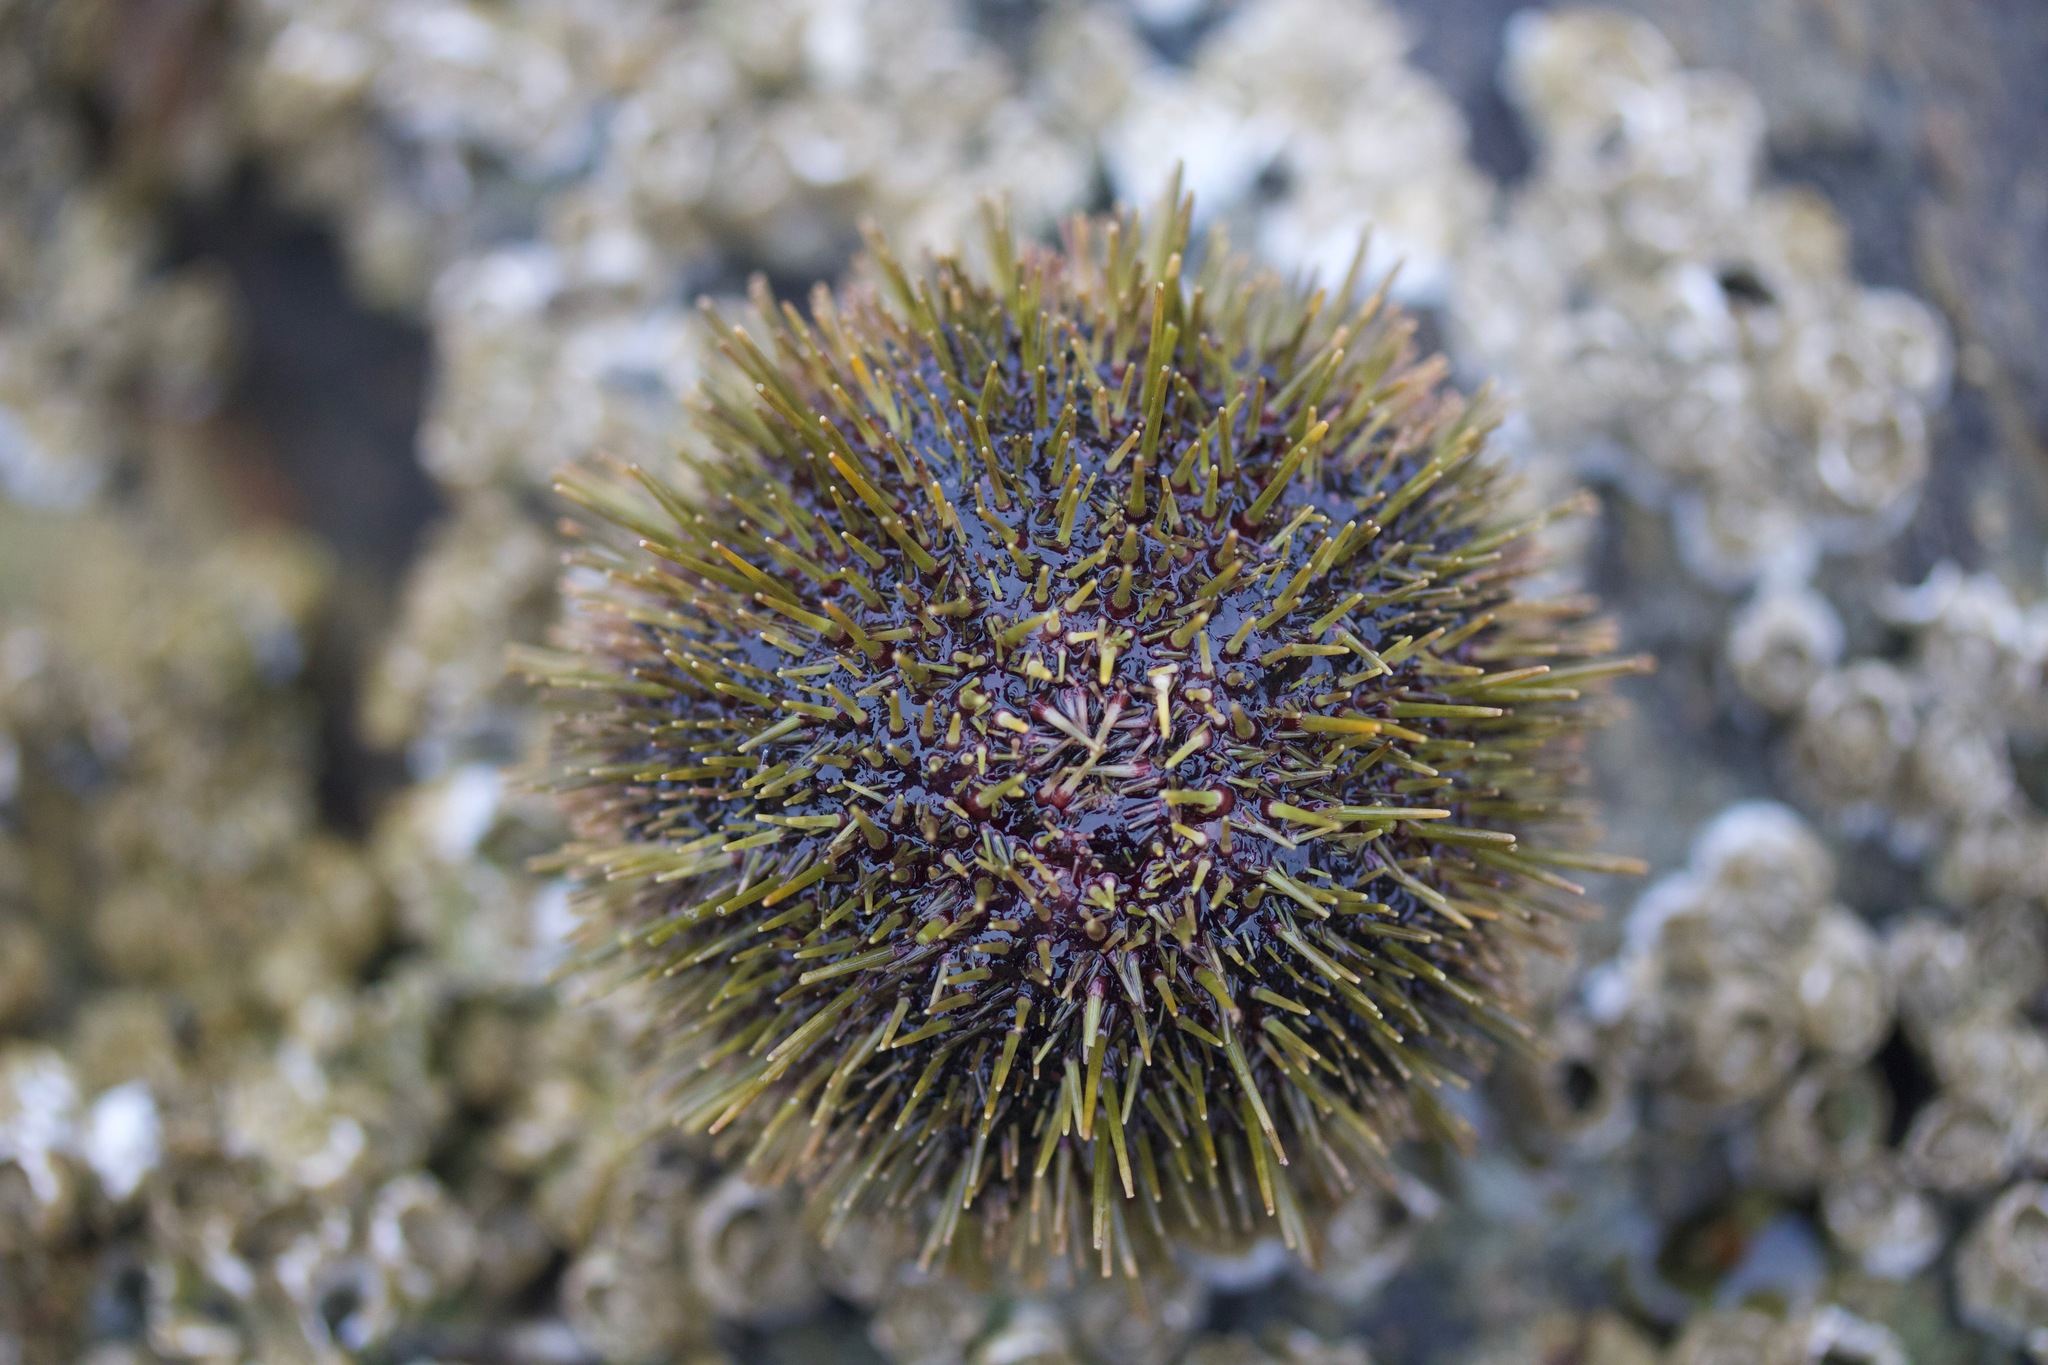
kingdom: Animalia
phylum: Echinodermata
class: Echinoidea
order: Camarodonta
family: Strongylocentrotidae
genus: Strongylocentrotus
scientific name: Strongylocentrotus droebachiensis
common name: Northern sea urchin
